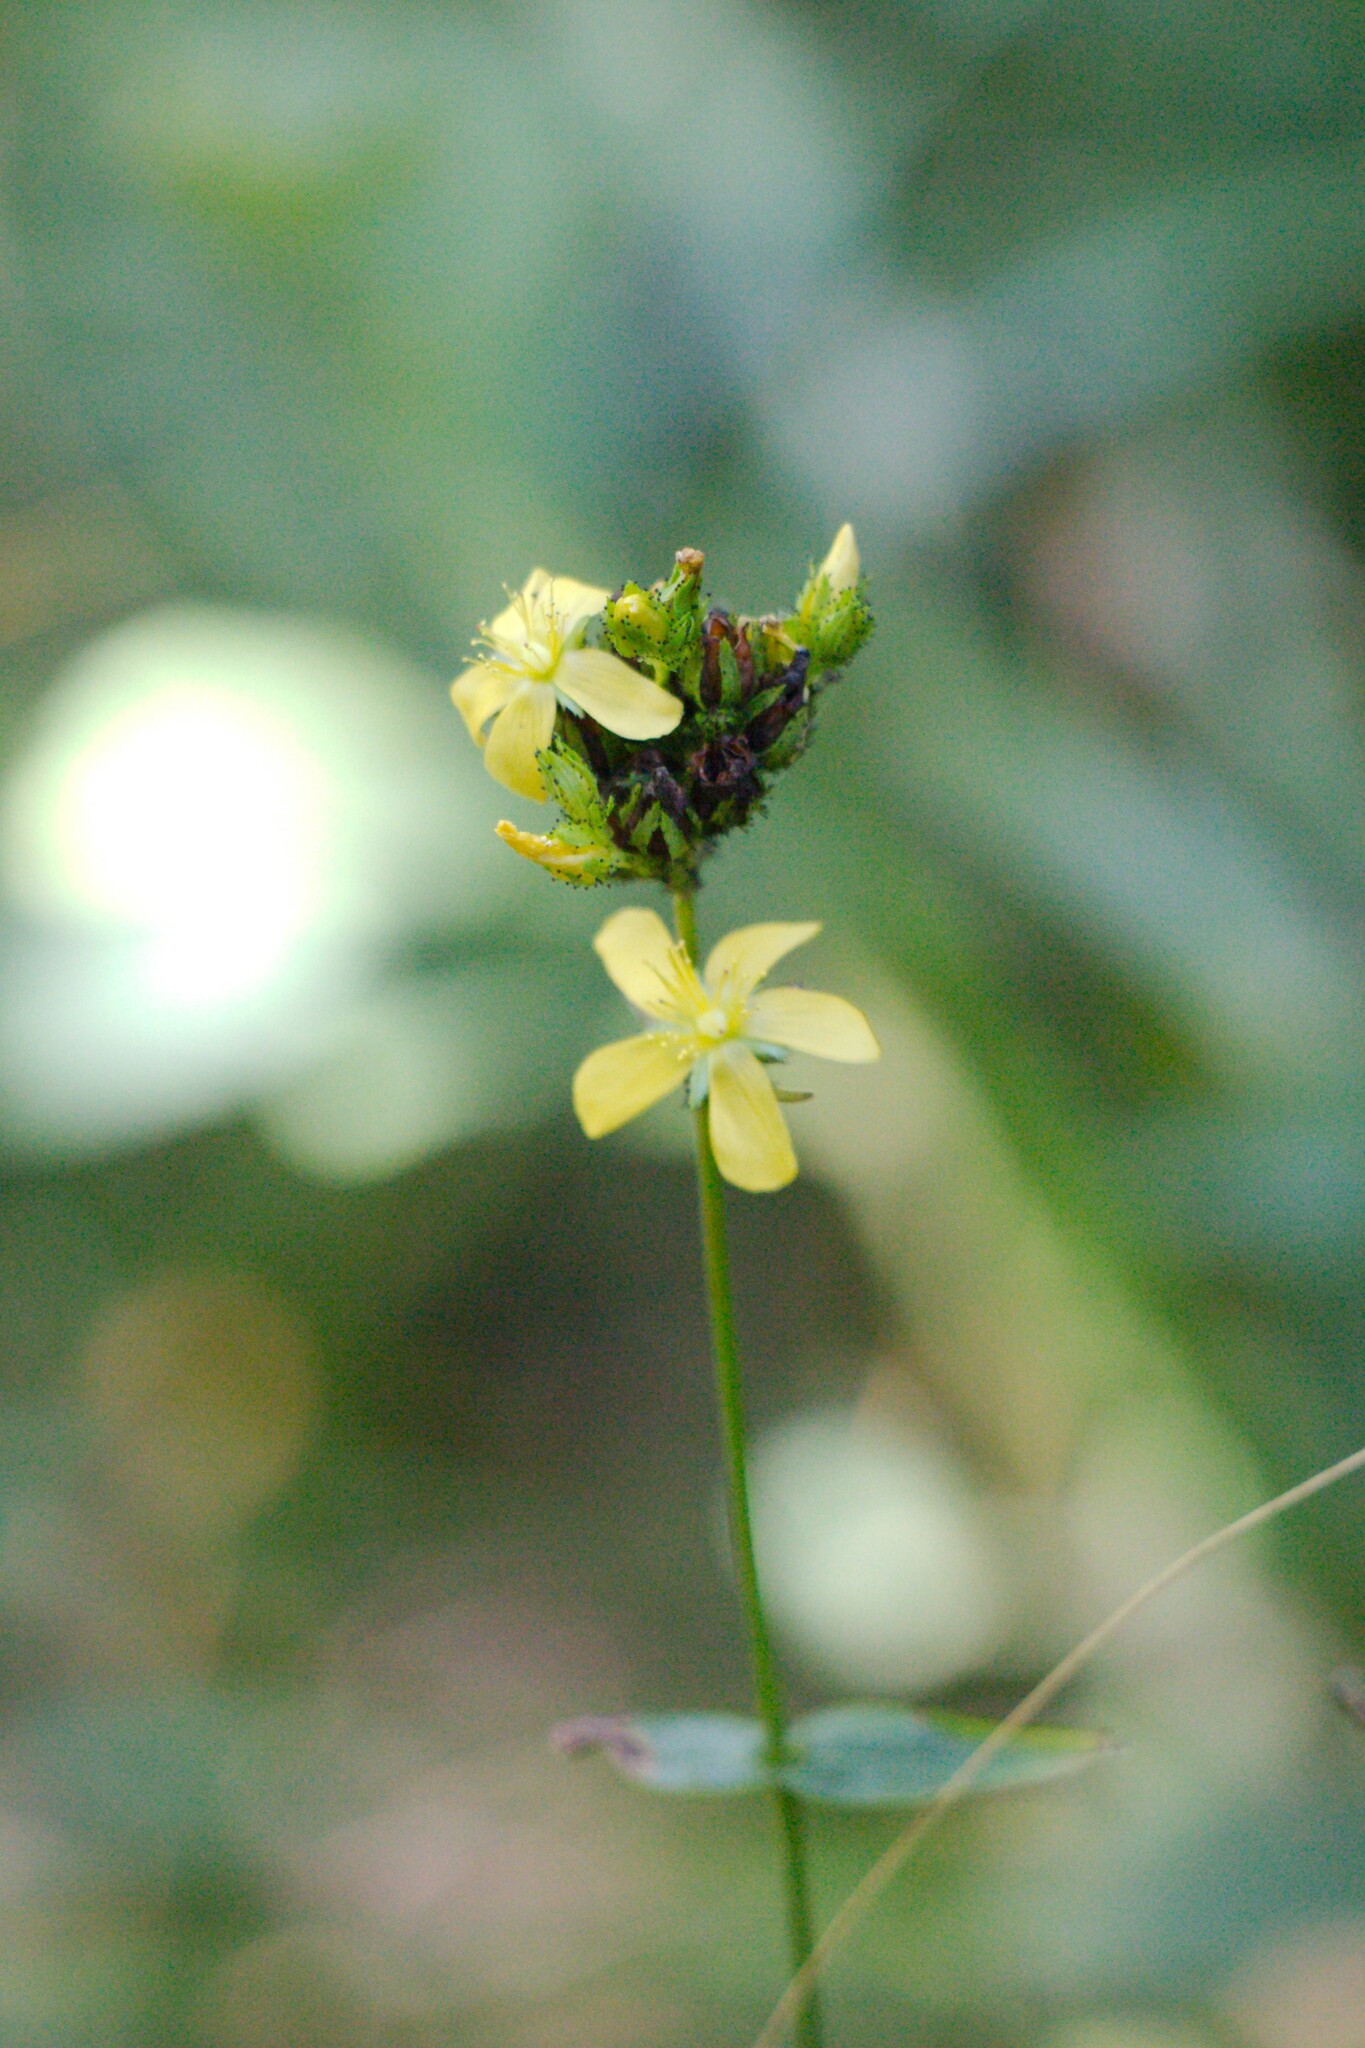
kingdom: Plantae
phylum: Tracheophyta
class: Magnoliopsida
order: Malpighiales
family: Hypericaceae
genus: Hypericum
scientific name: Hypericum montanum
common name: Pale st. john's-wort
